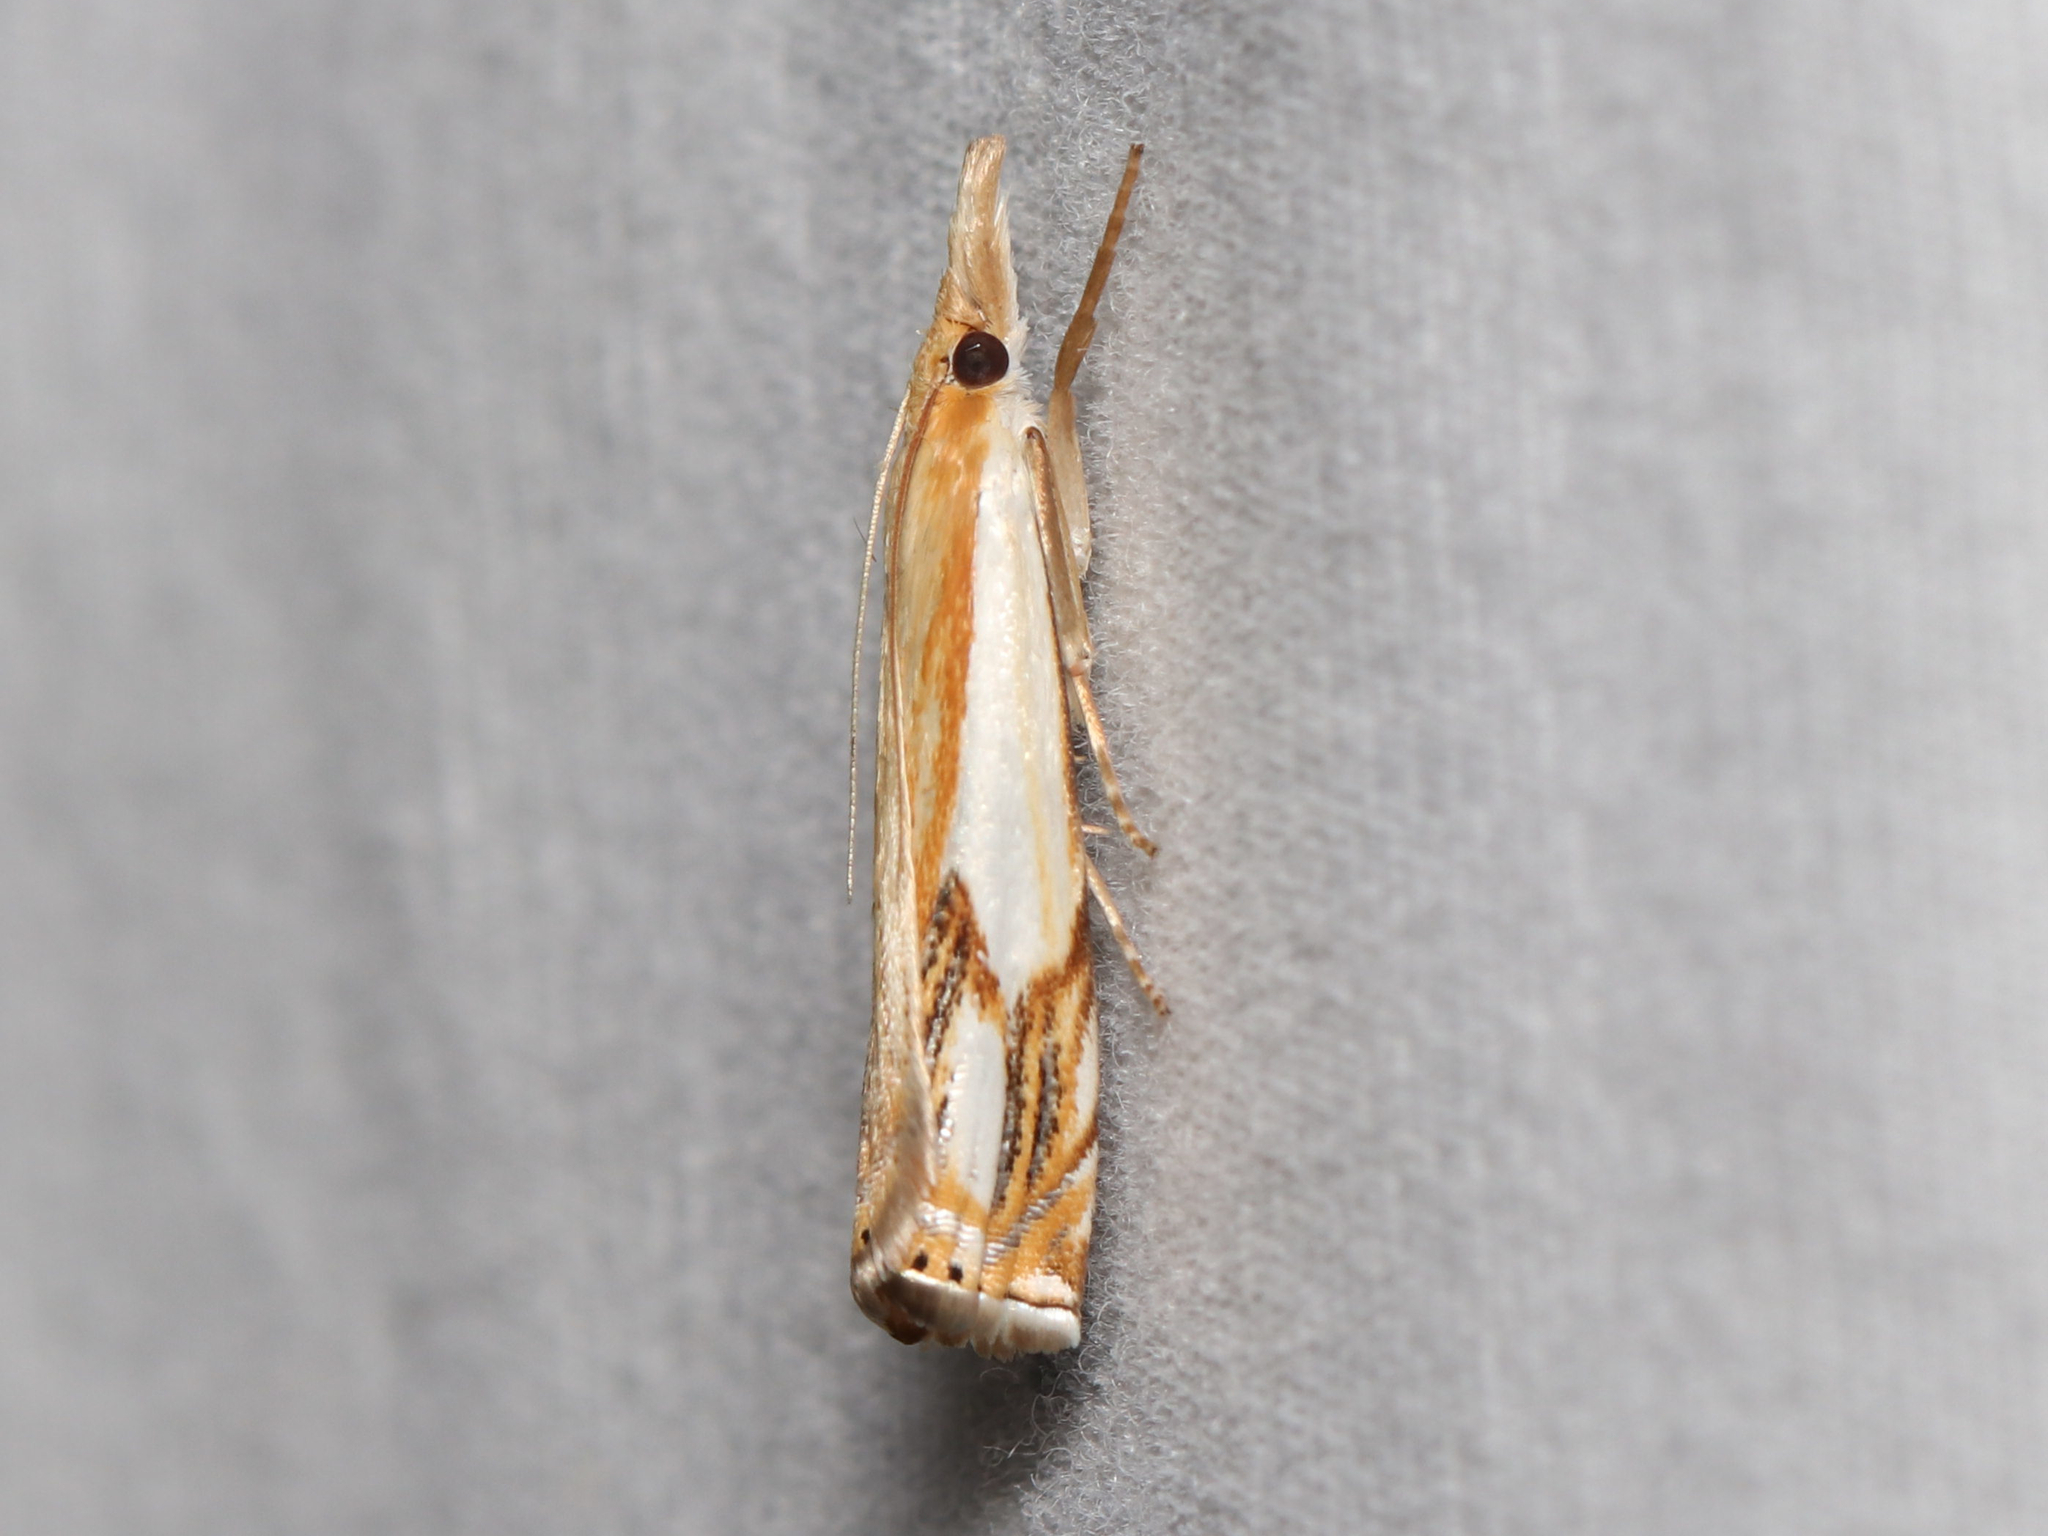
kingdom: Animalia
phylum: Arthropoda
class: Insecta
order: Lepidoptera
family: Crambidae
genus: Crambus
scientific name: Crambus agitatellus
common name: Double-banded grass-veneer
